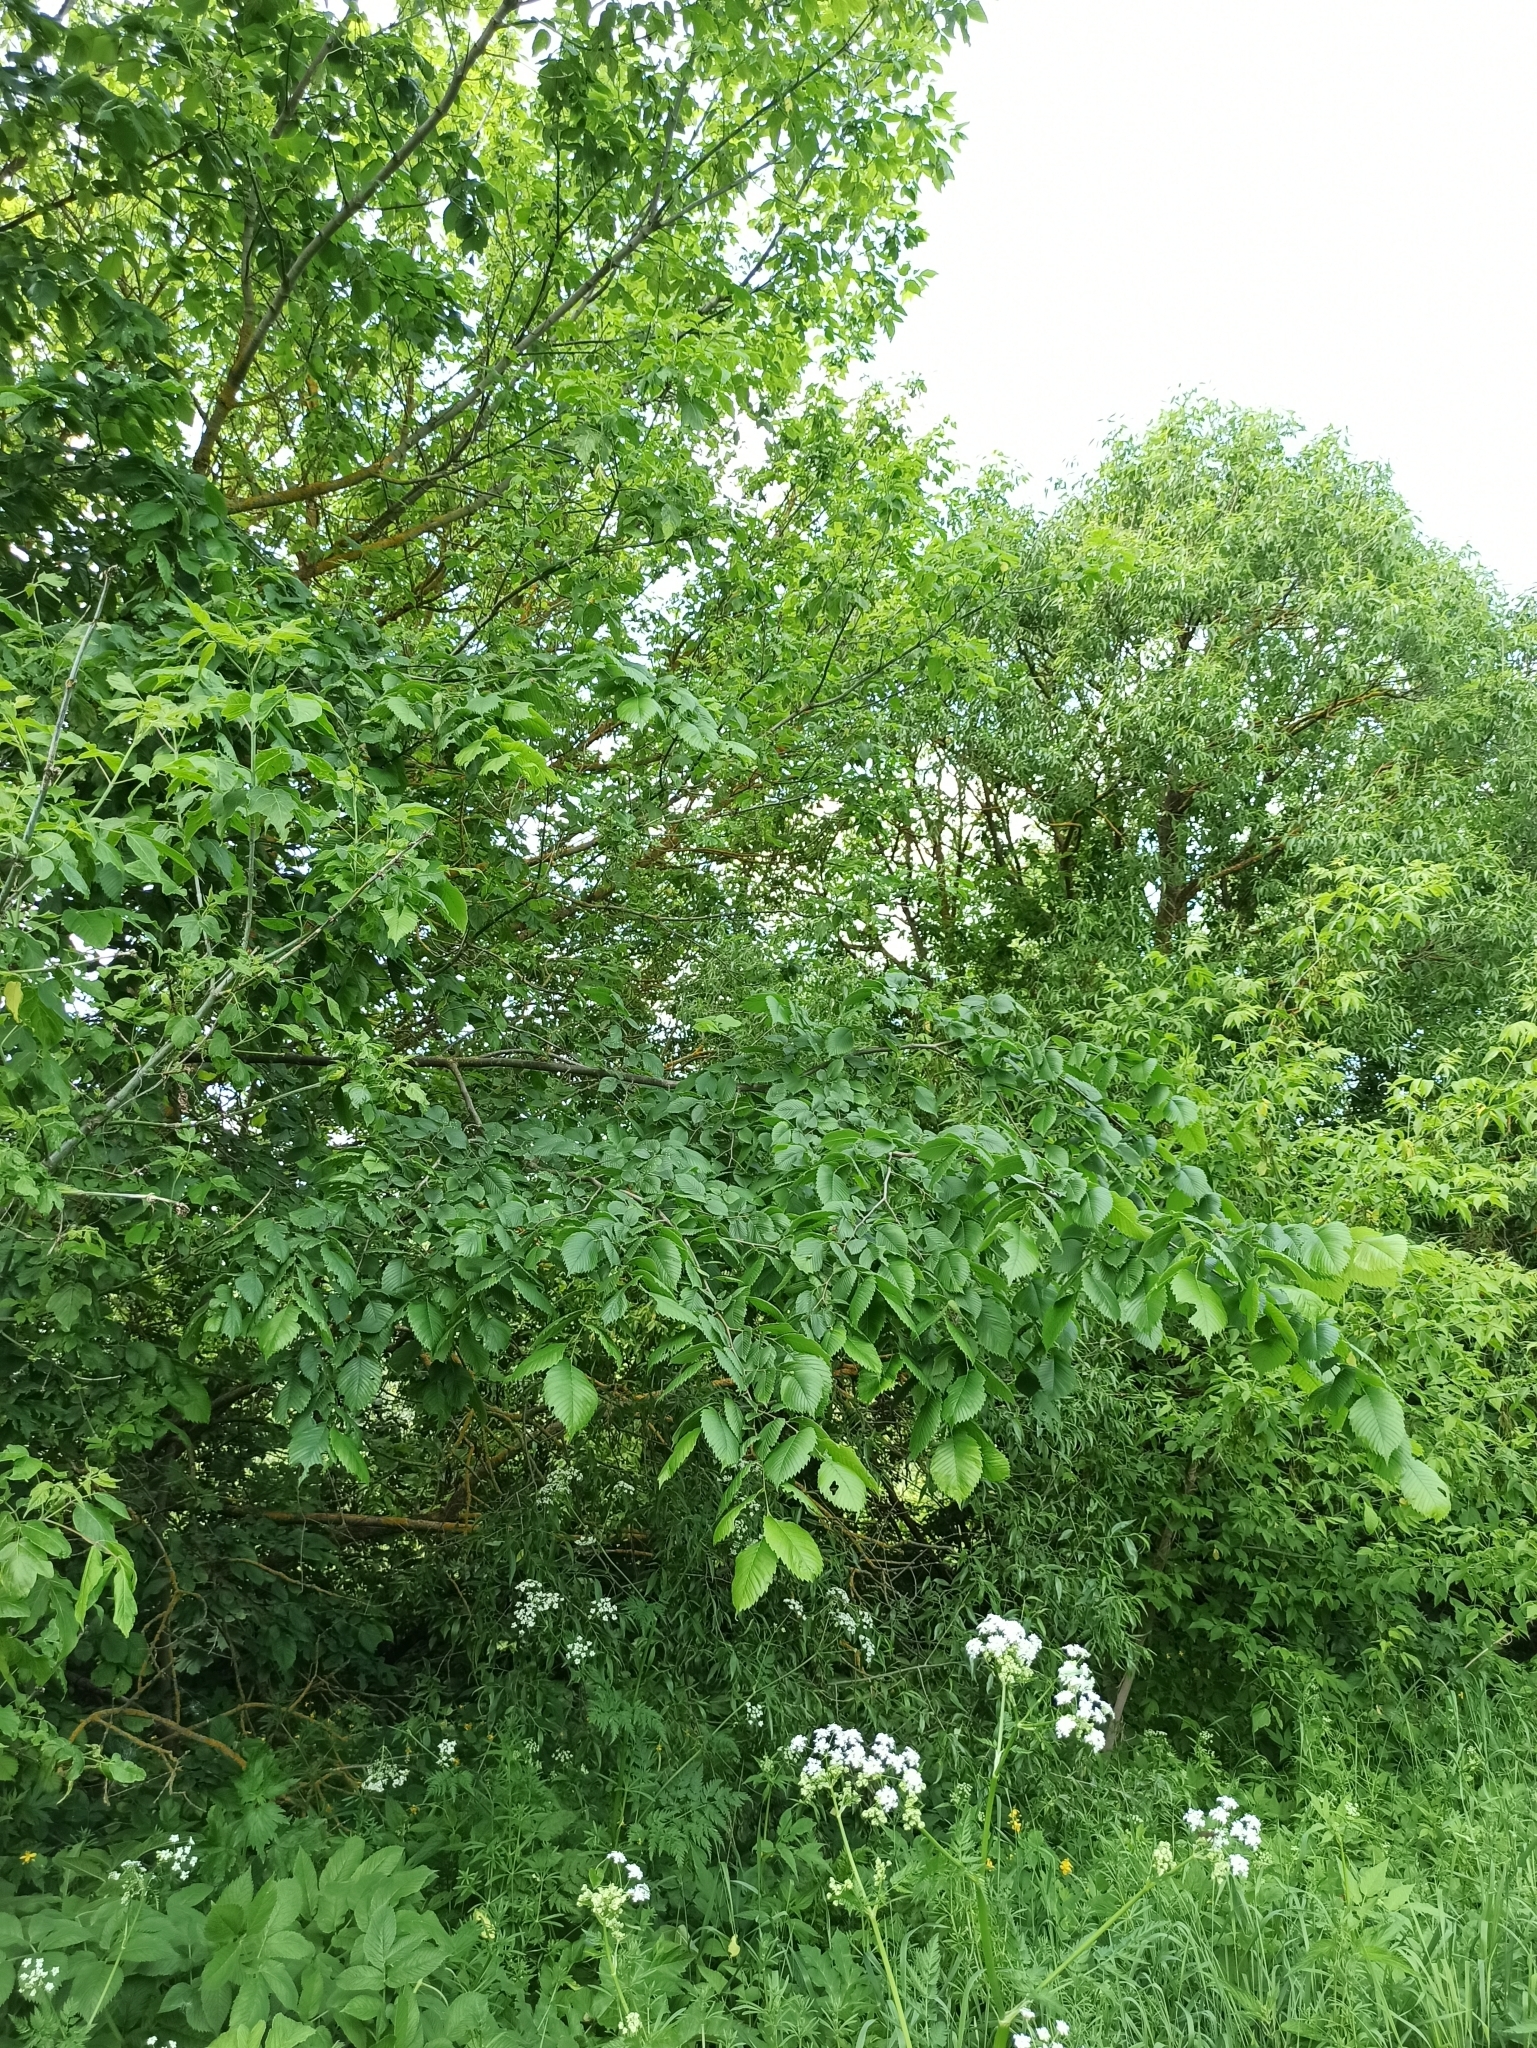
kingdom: Plantae
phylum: Tracheophyta
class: Magnoliopsida
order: Rosales
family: Ulmaceae
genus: Ulmus
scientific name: Ulmus laevis
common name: European white-elm
